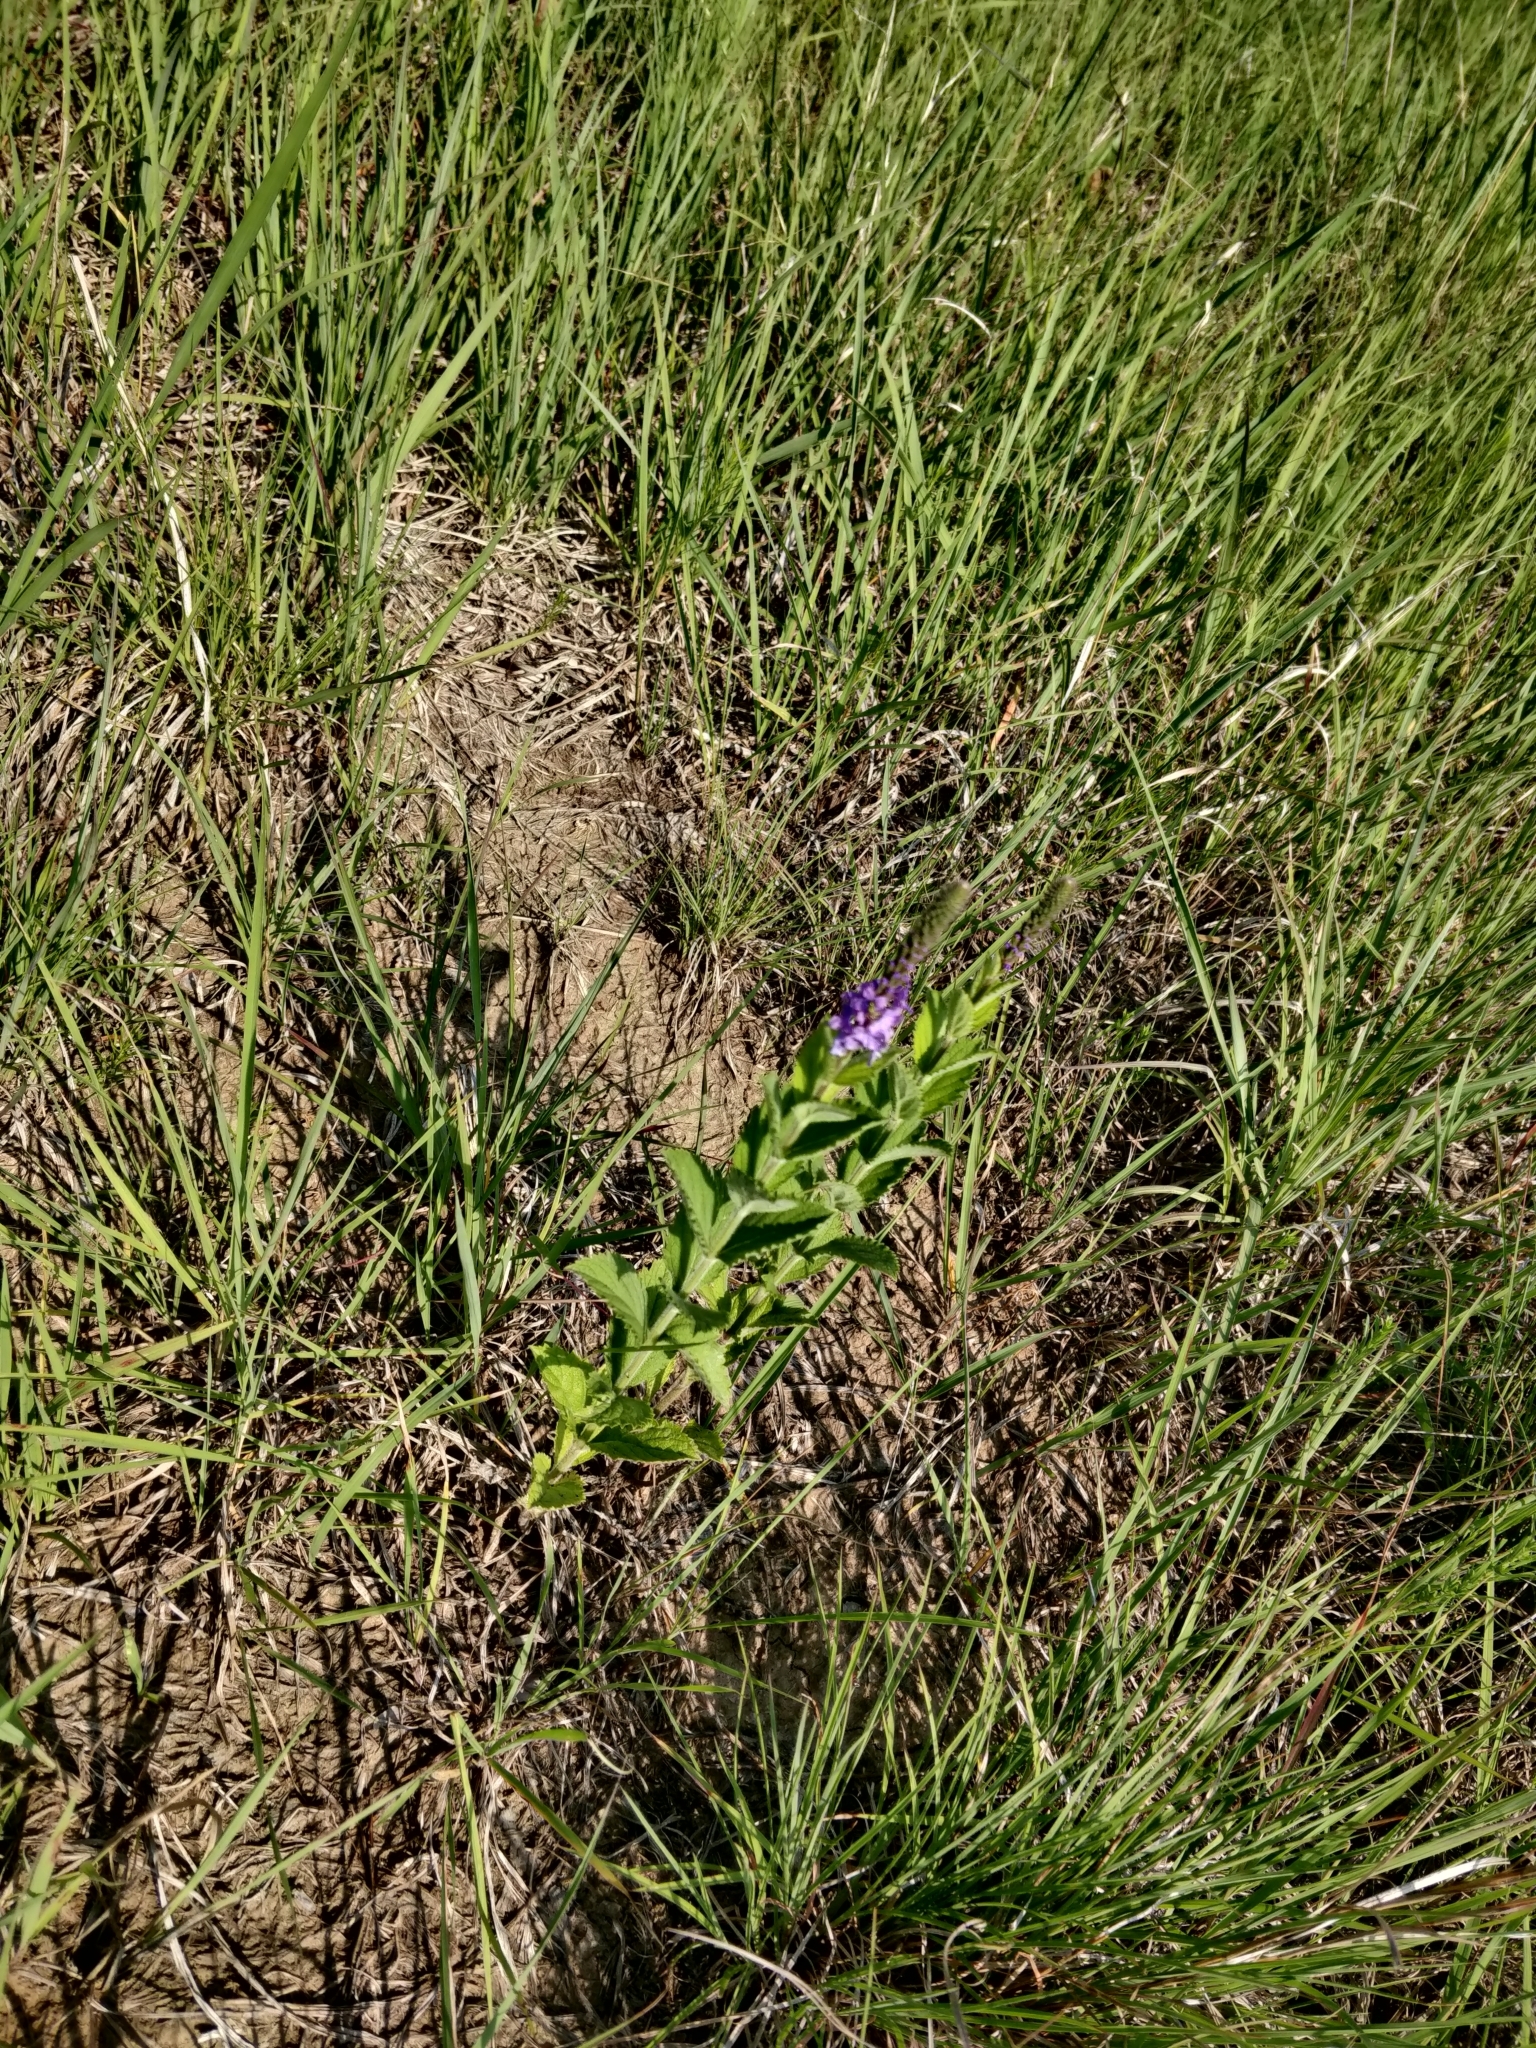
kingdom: Plantae
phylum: Tracheophyta
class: Magnoliopsida
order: Lamiales
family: Verbenaceae
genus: Verbena
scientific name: Verbena stricta
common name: Hoary vervain
